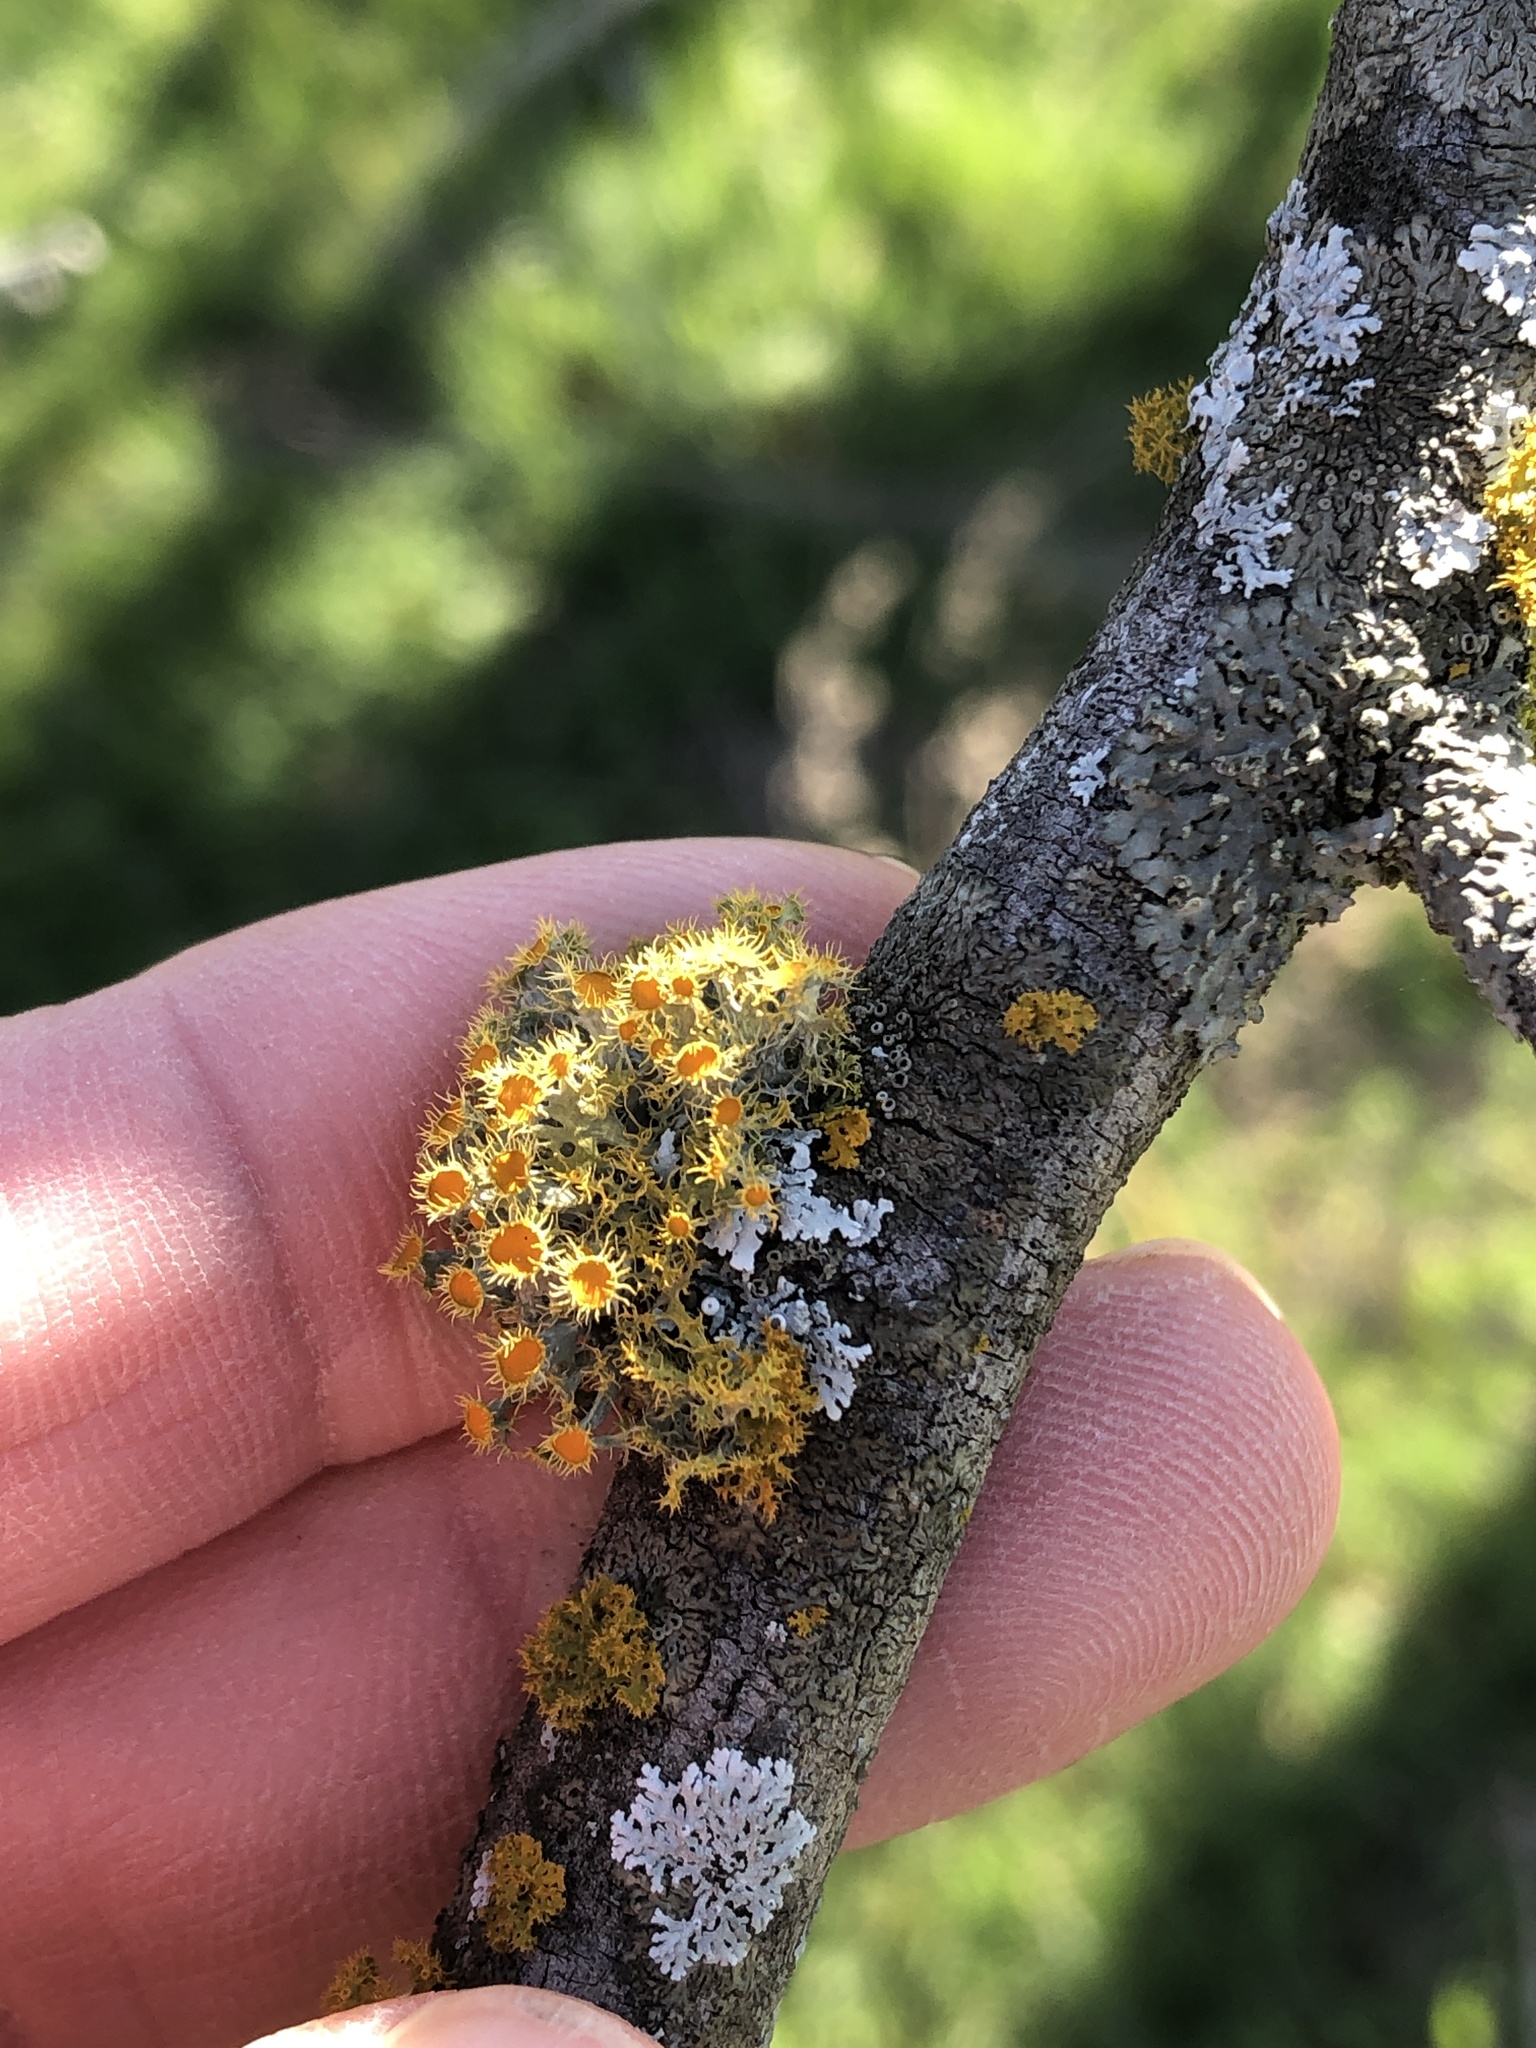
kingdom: Fungi
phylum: Ascomycota
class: Lecanoromycetes
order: Teloschistales
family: Teloschistaceae
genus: Niorma
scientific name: Niorma chrysophthalma
